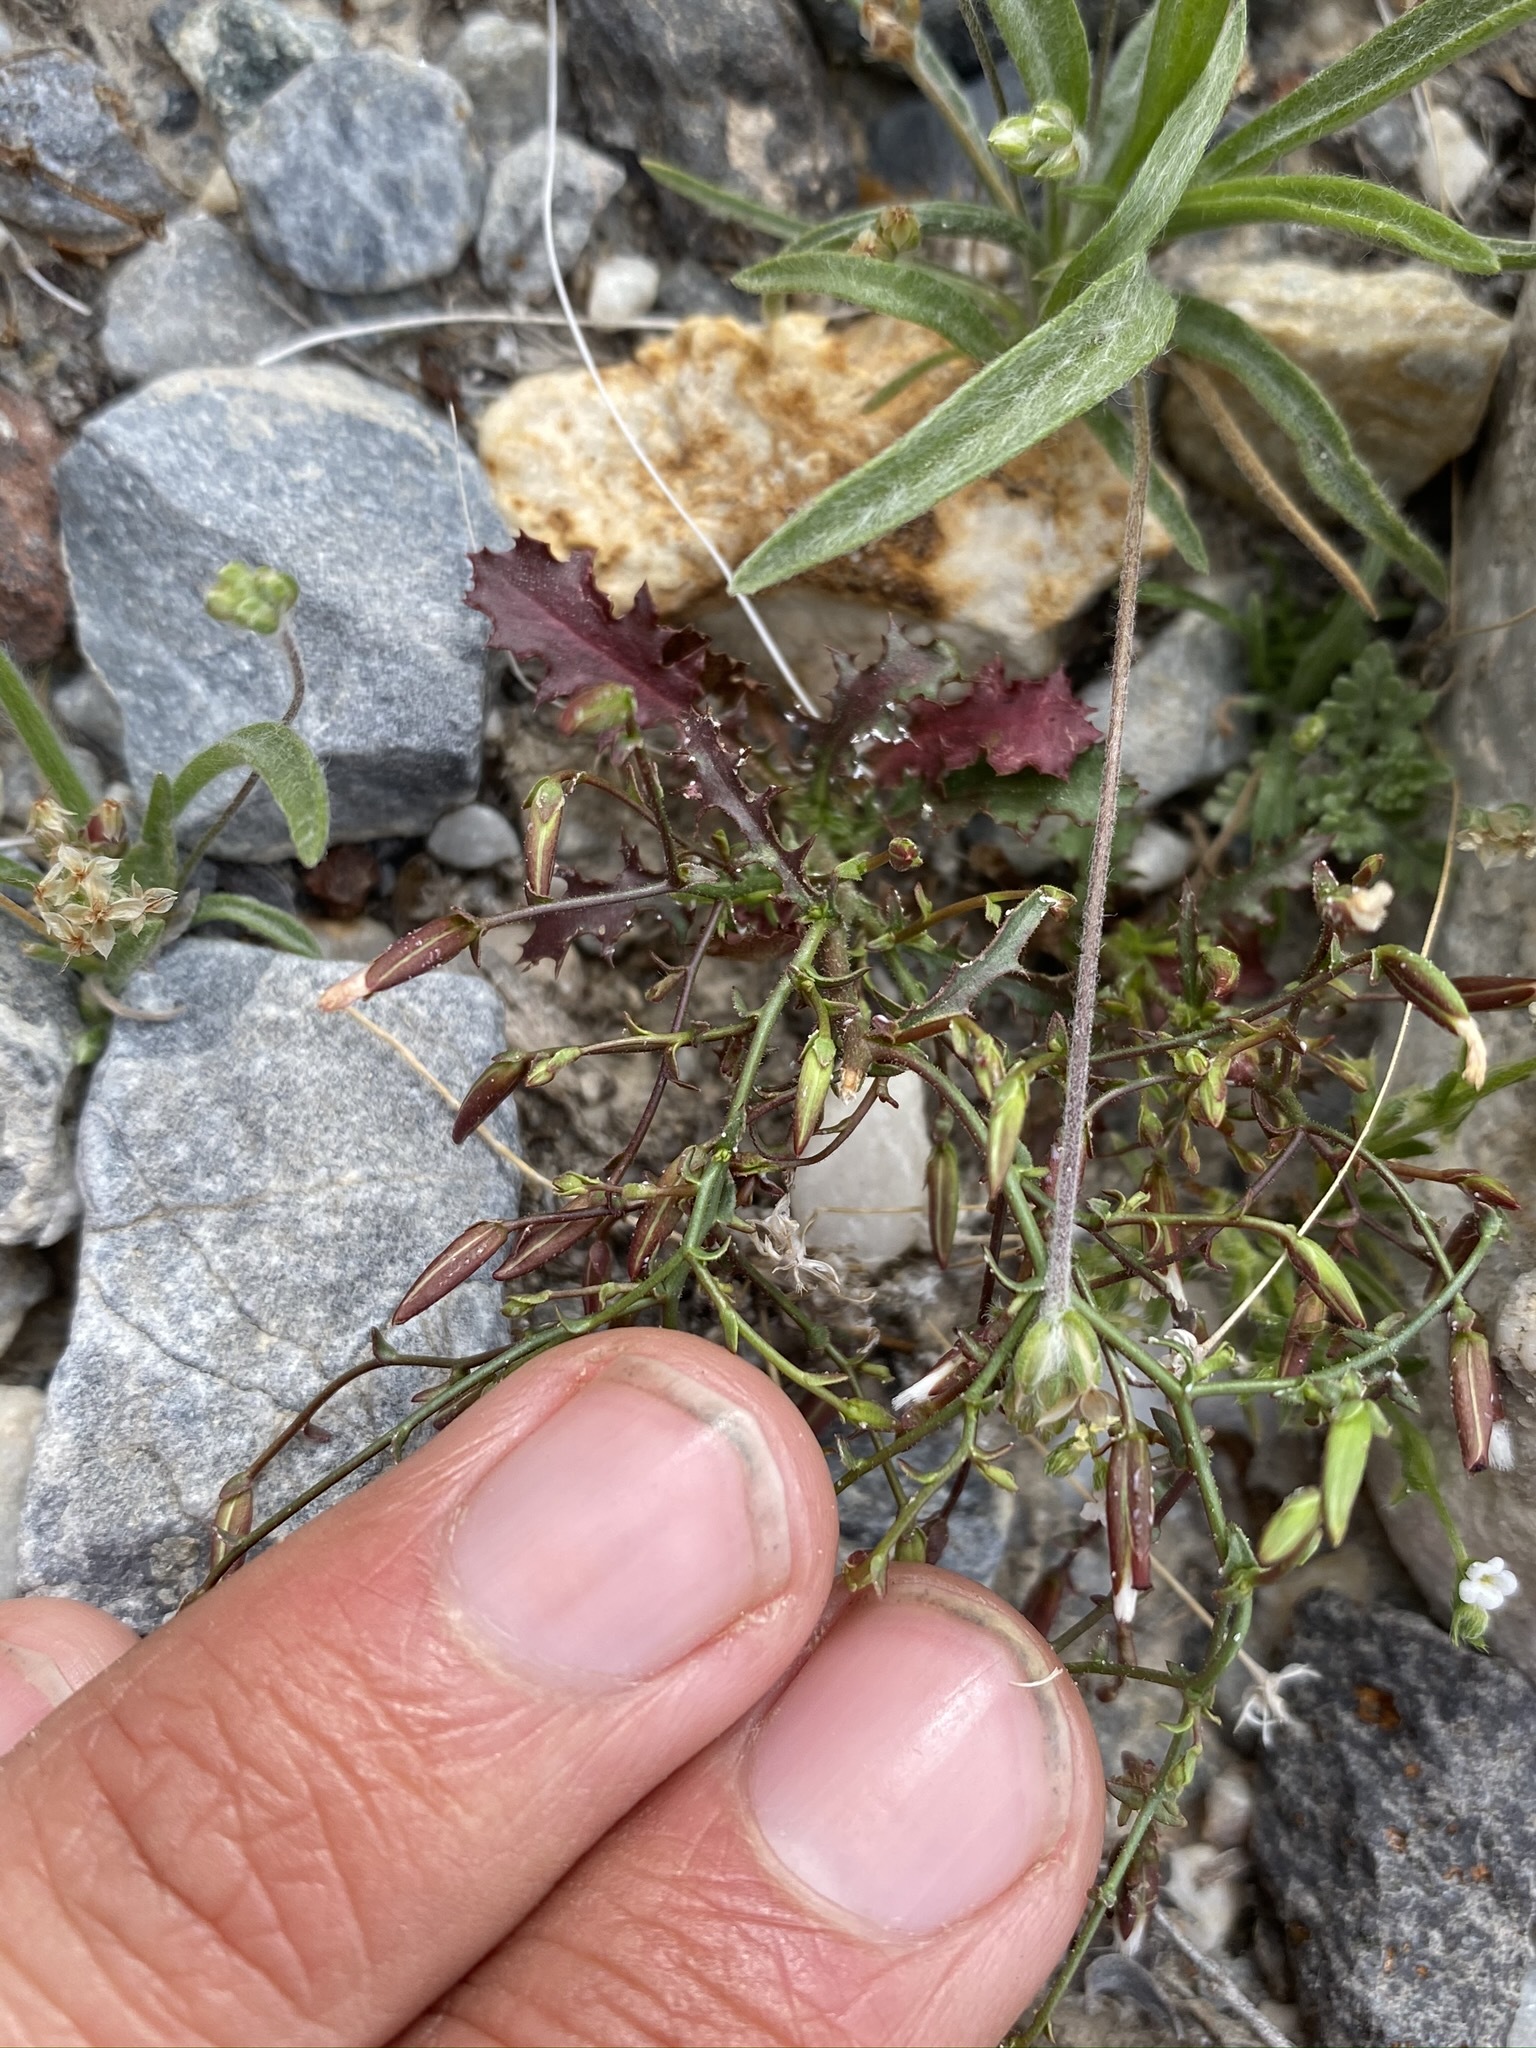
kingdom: Plantae
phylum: Tracheophyta
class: Magnoliopsida
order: Asterales
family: Asteraceae
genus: Lygodesmia
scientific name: Lygodesmia exigua
